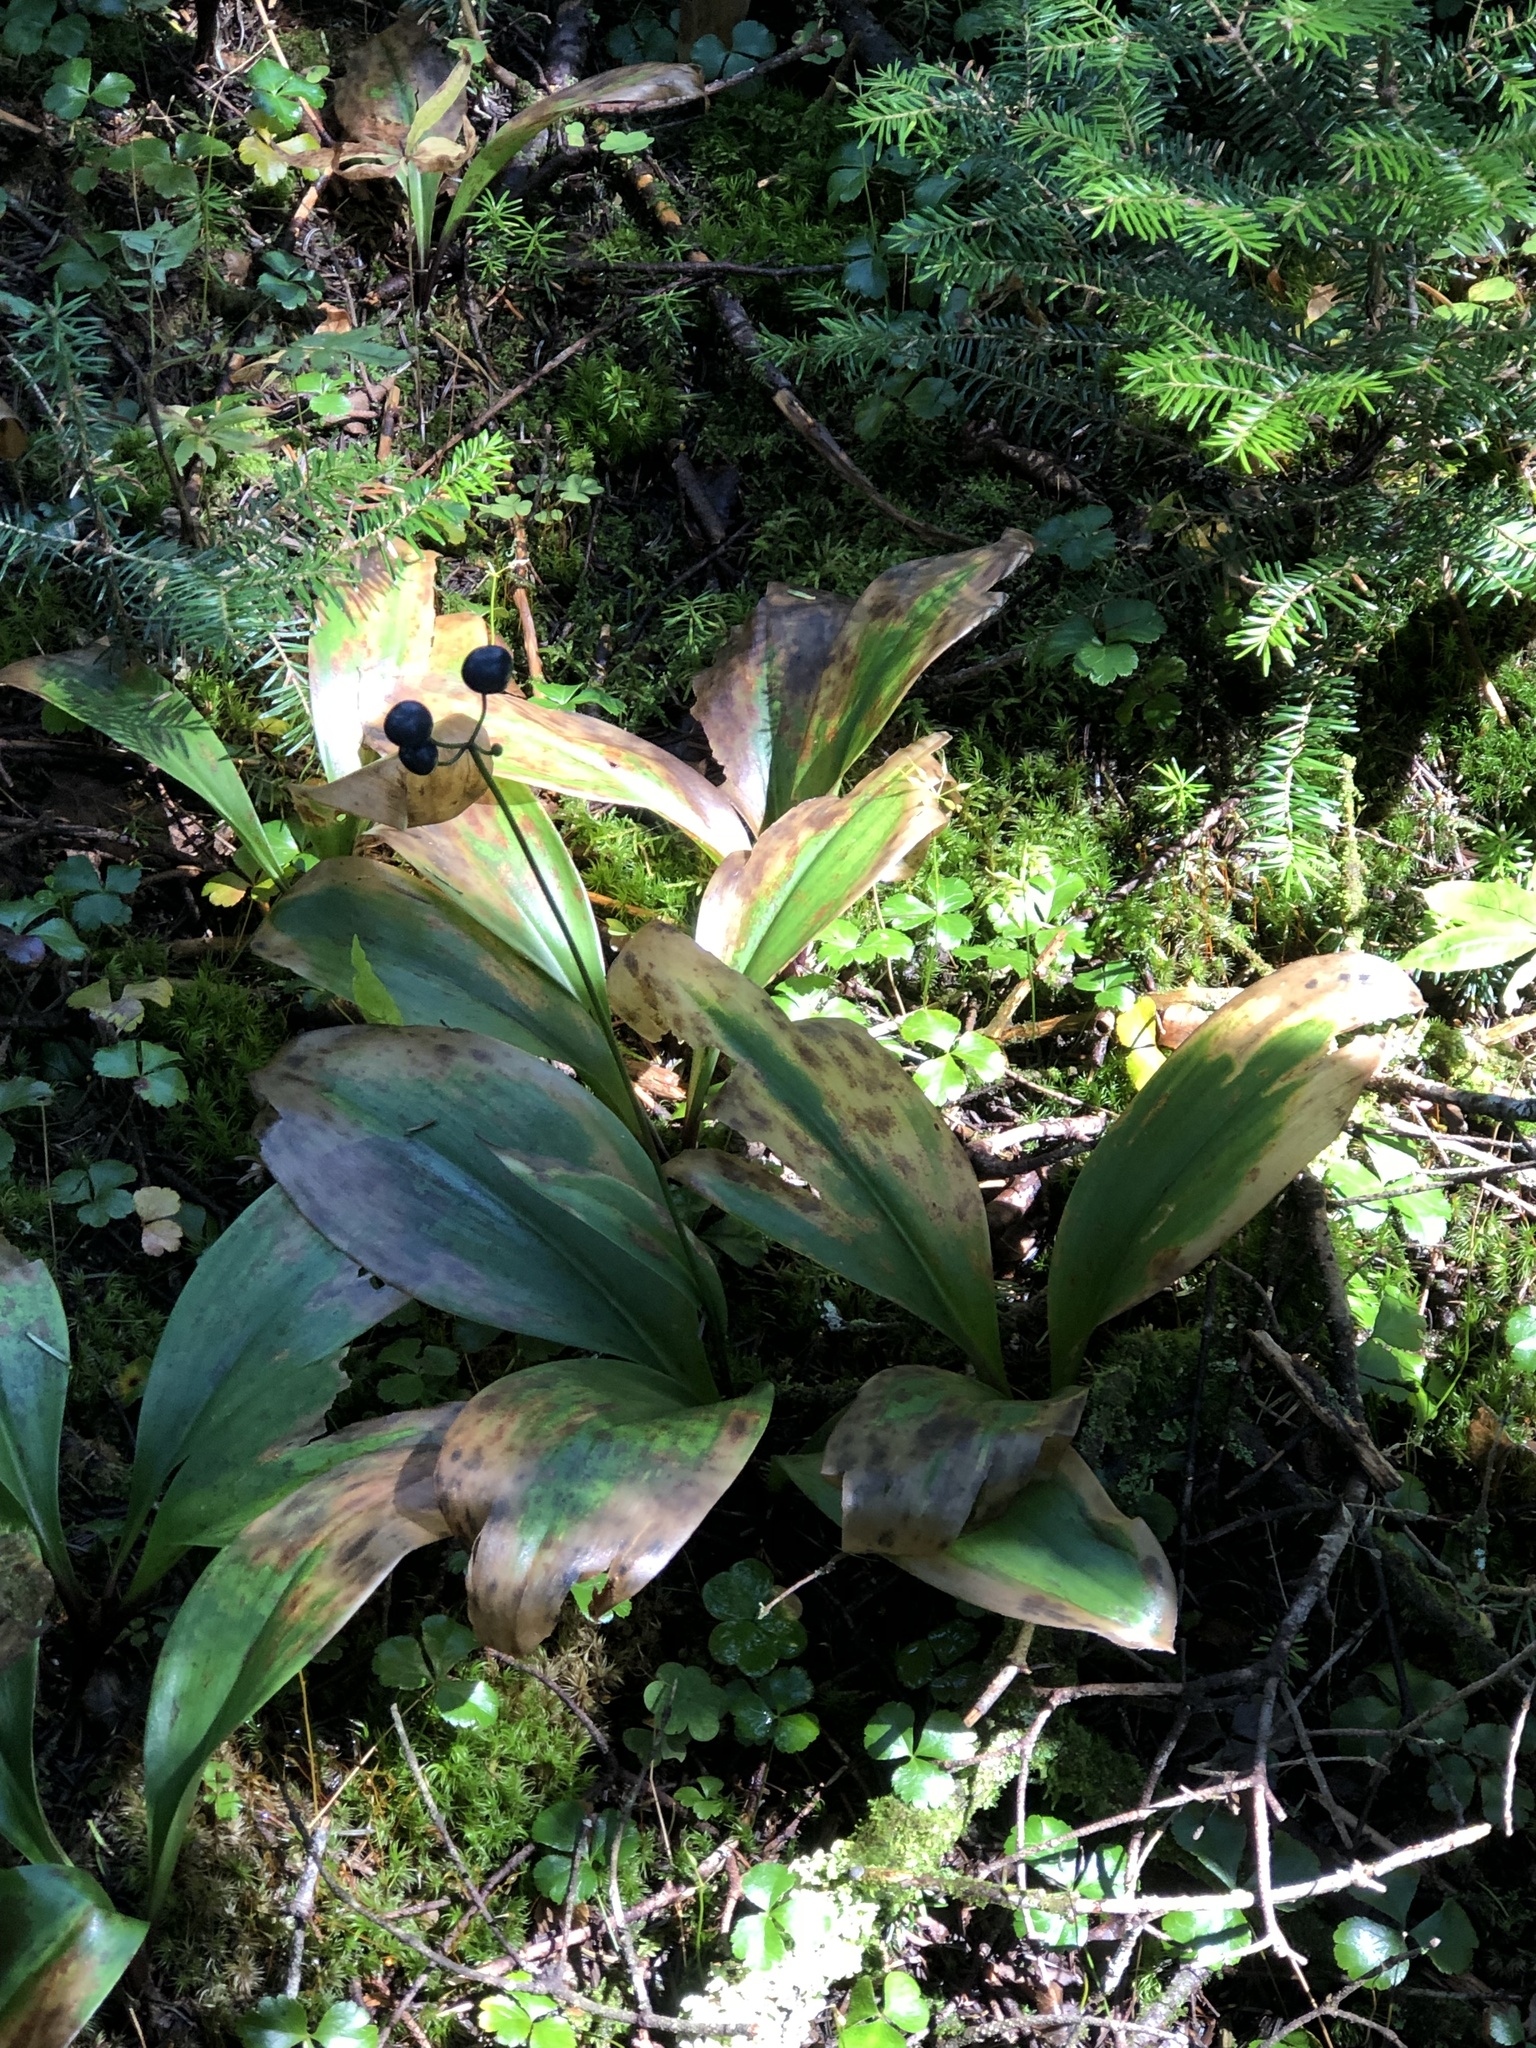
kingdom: Plantae
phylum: Tracheophyta
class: Liliopsida
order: Liliales
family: Liliaceae
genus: Clintonia
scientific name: Clintonia borealis
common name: Yellow clintonia
